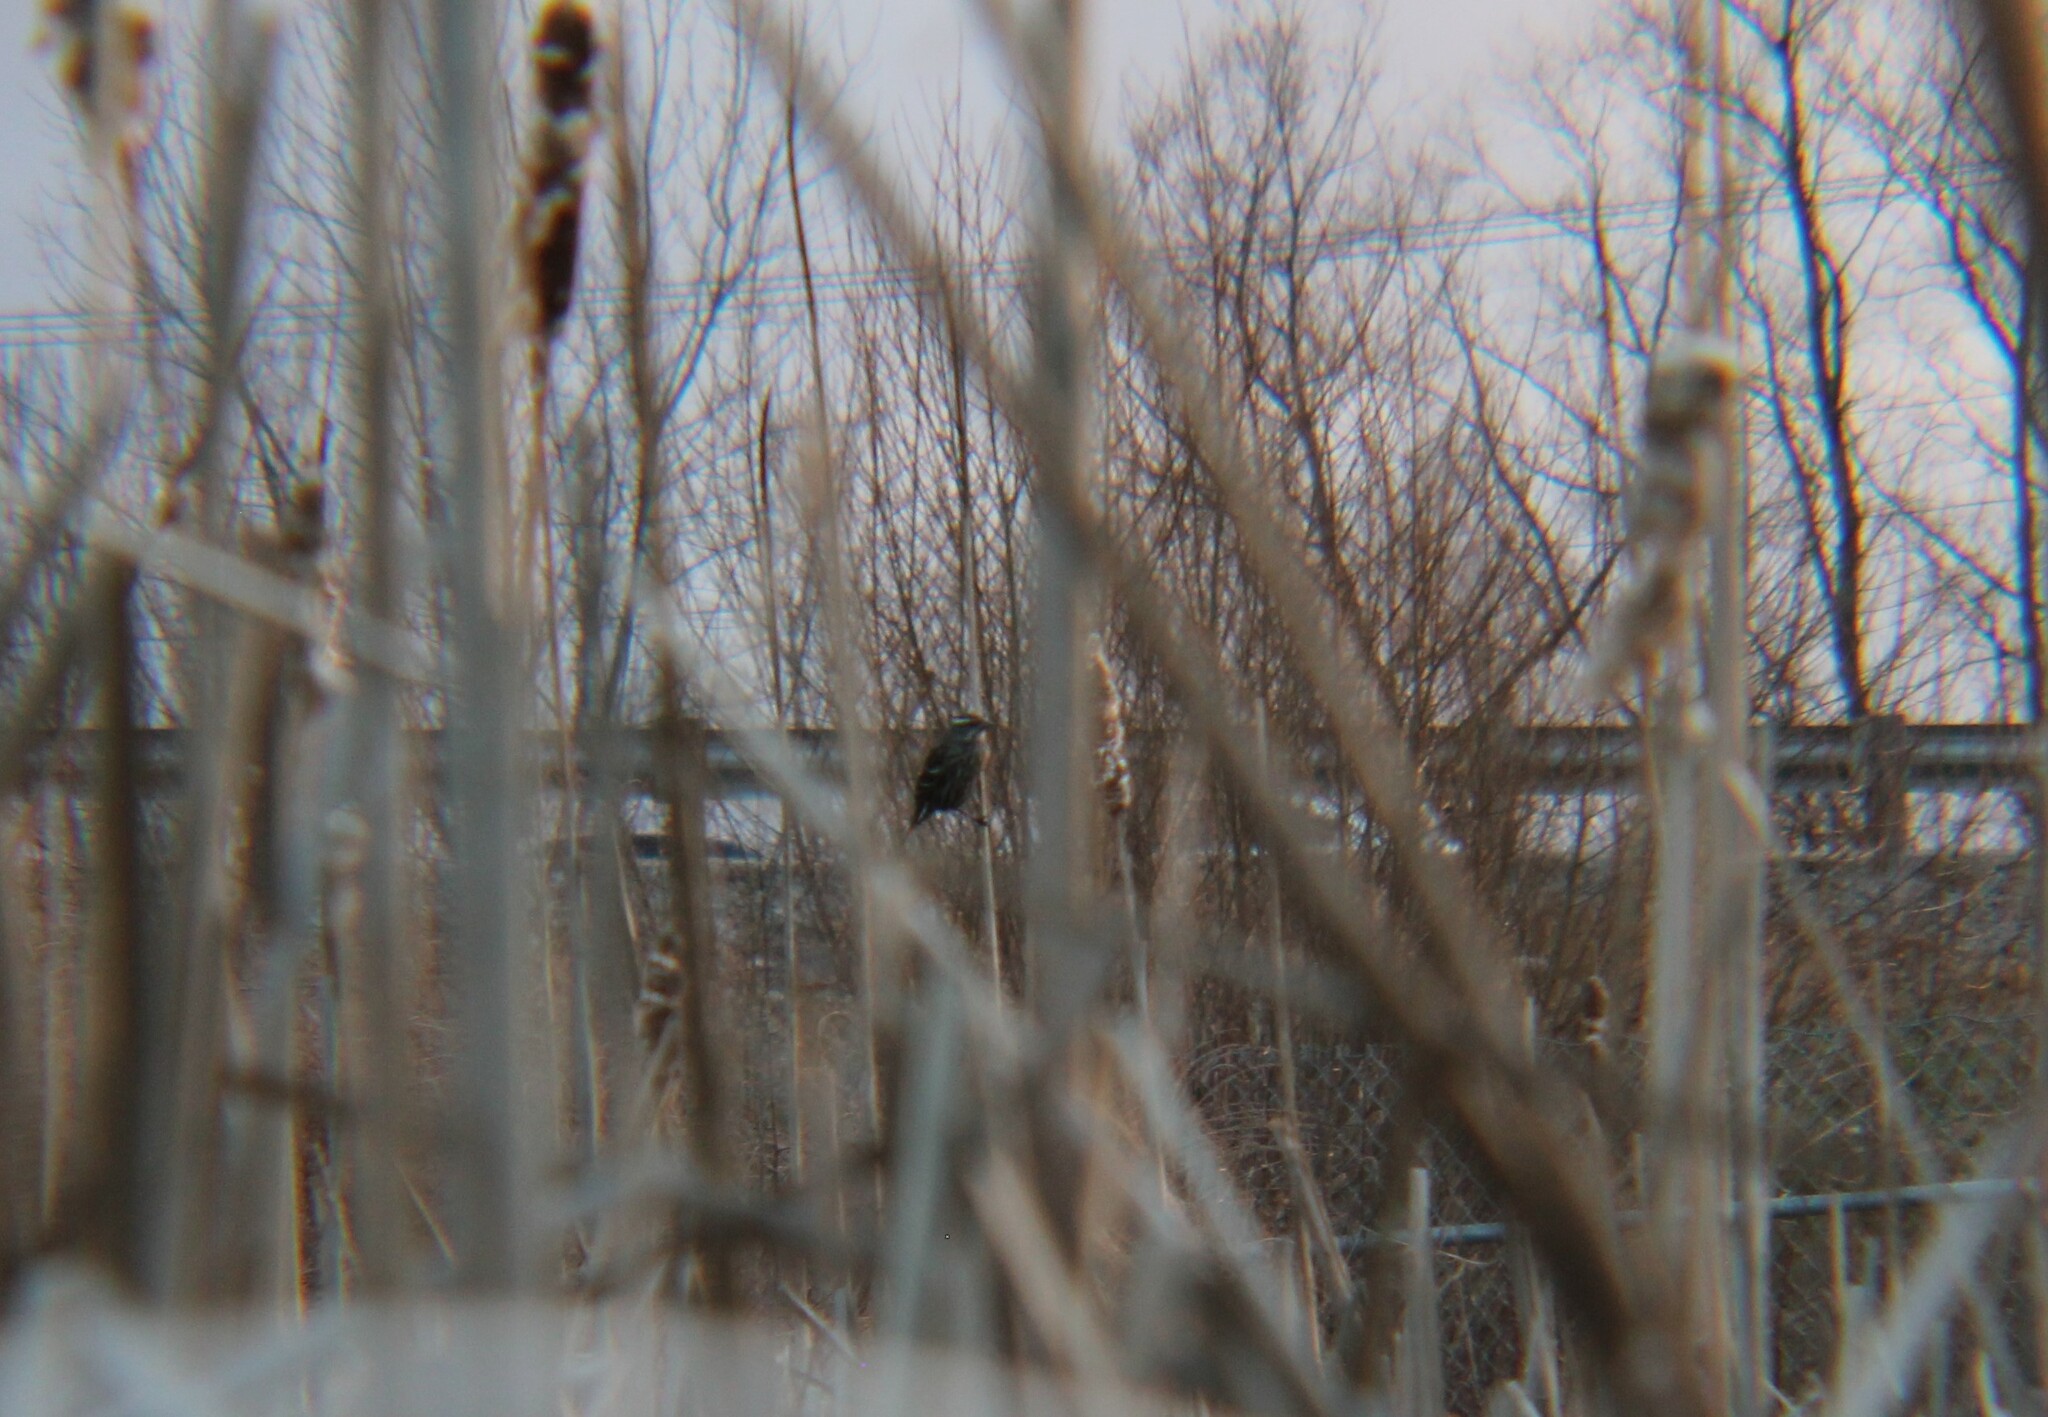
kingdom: Animalia
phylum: Chordata
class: Aves
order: Passeriformes
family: Icteridae
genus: Agelaius
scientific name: Agelaius phoeniceus
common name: Red-winged blackbird
